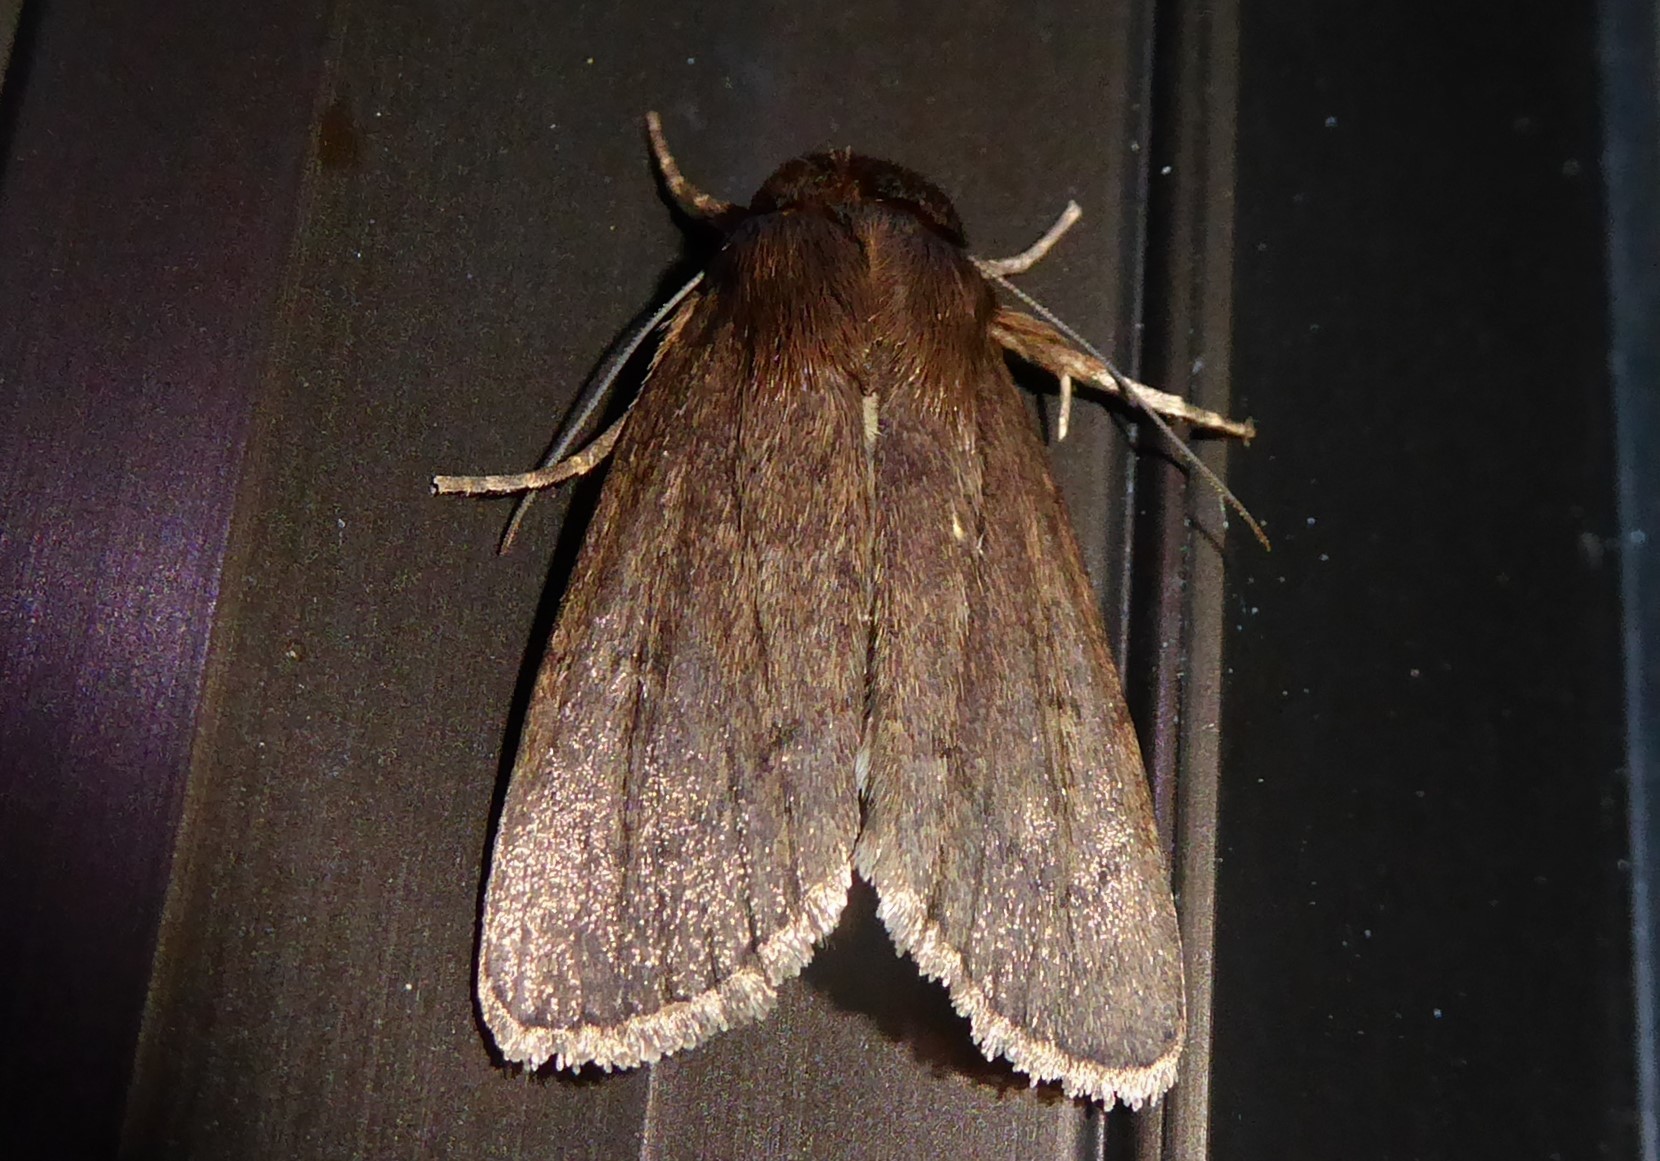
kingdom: Animalia
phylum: Arthropoda
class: Insecta
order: Lepidoptera
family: Noctuidae
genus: Bityla
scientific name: Bityla defigurata
